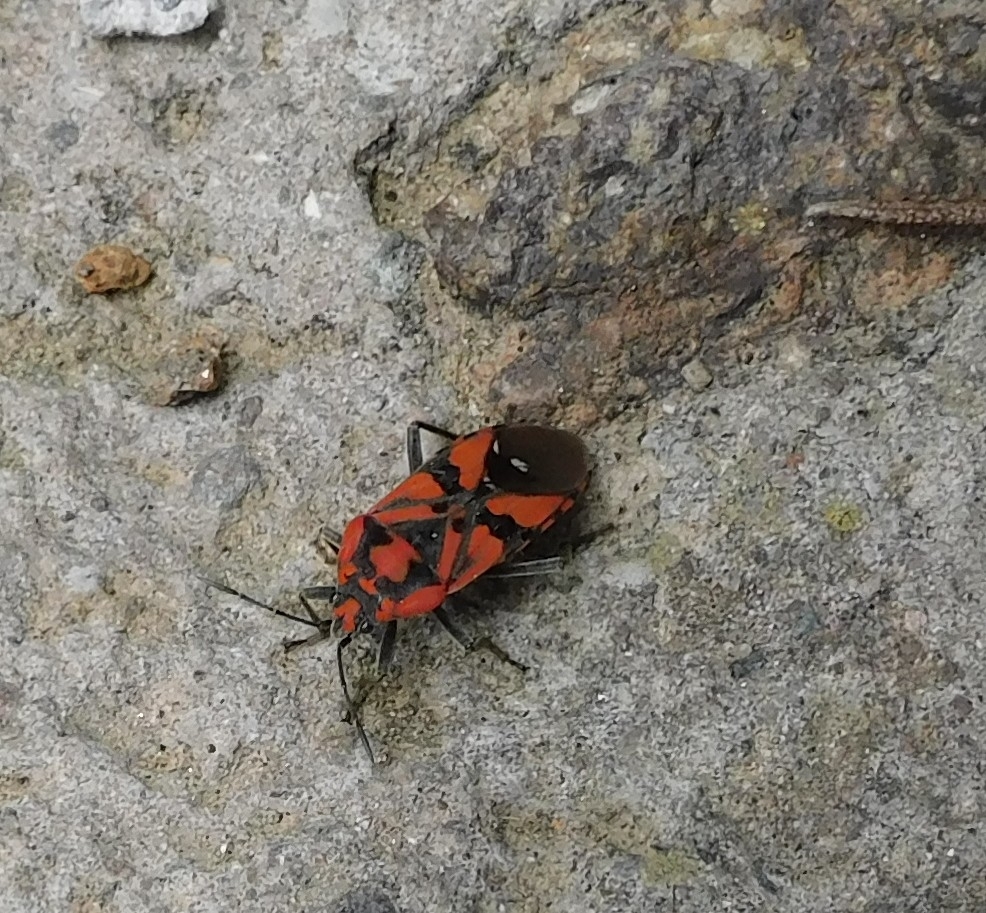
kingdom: Animalia
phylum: Arthropoda
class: Insecta
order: Hemiptera
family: Lygaeidae
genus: Spilostethus
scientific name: Spilostethus pandurus
